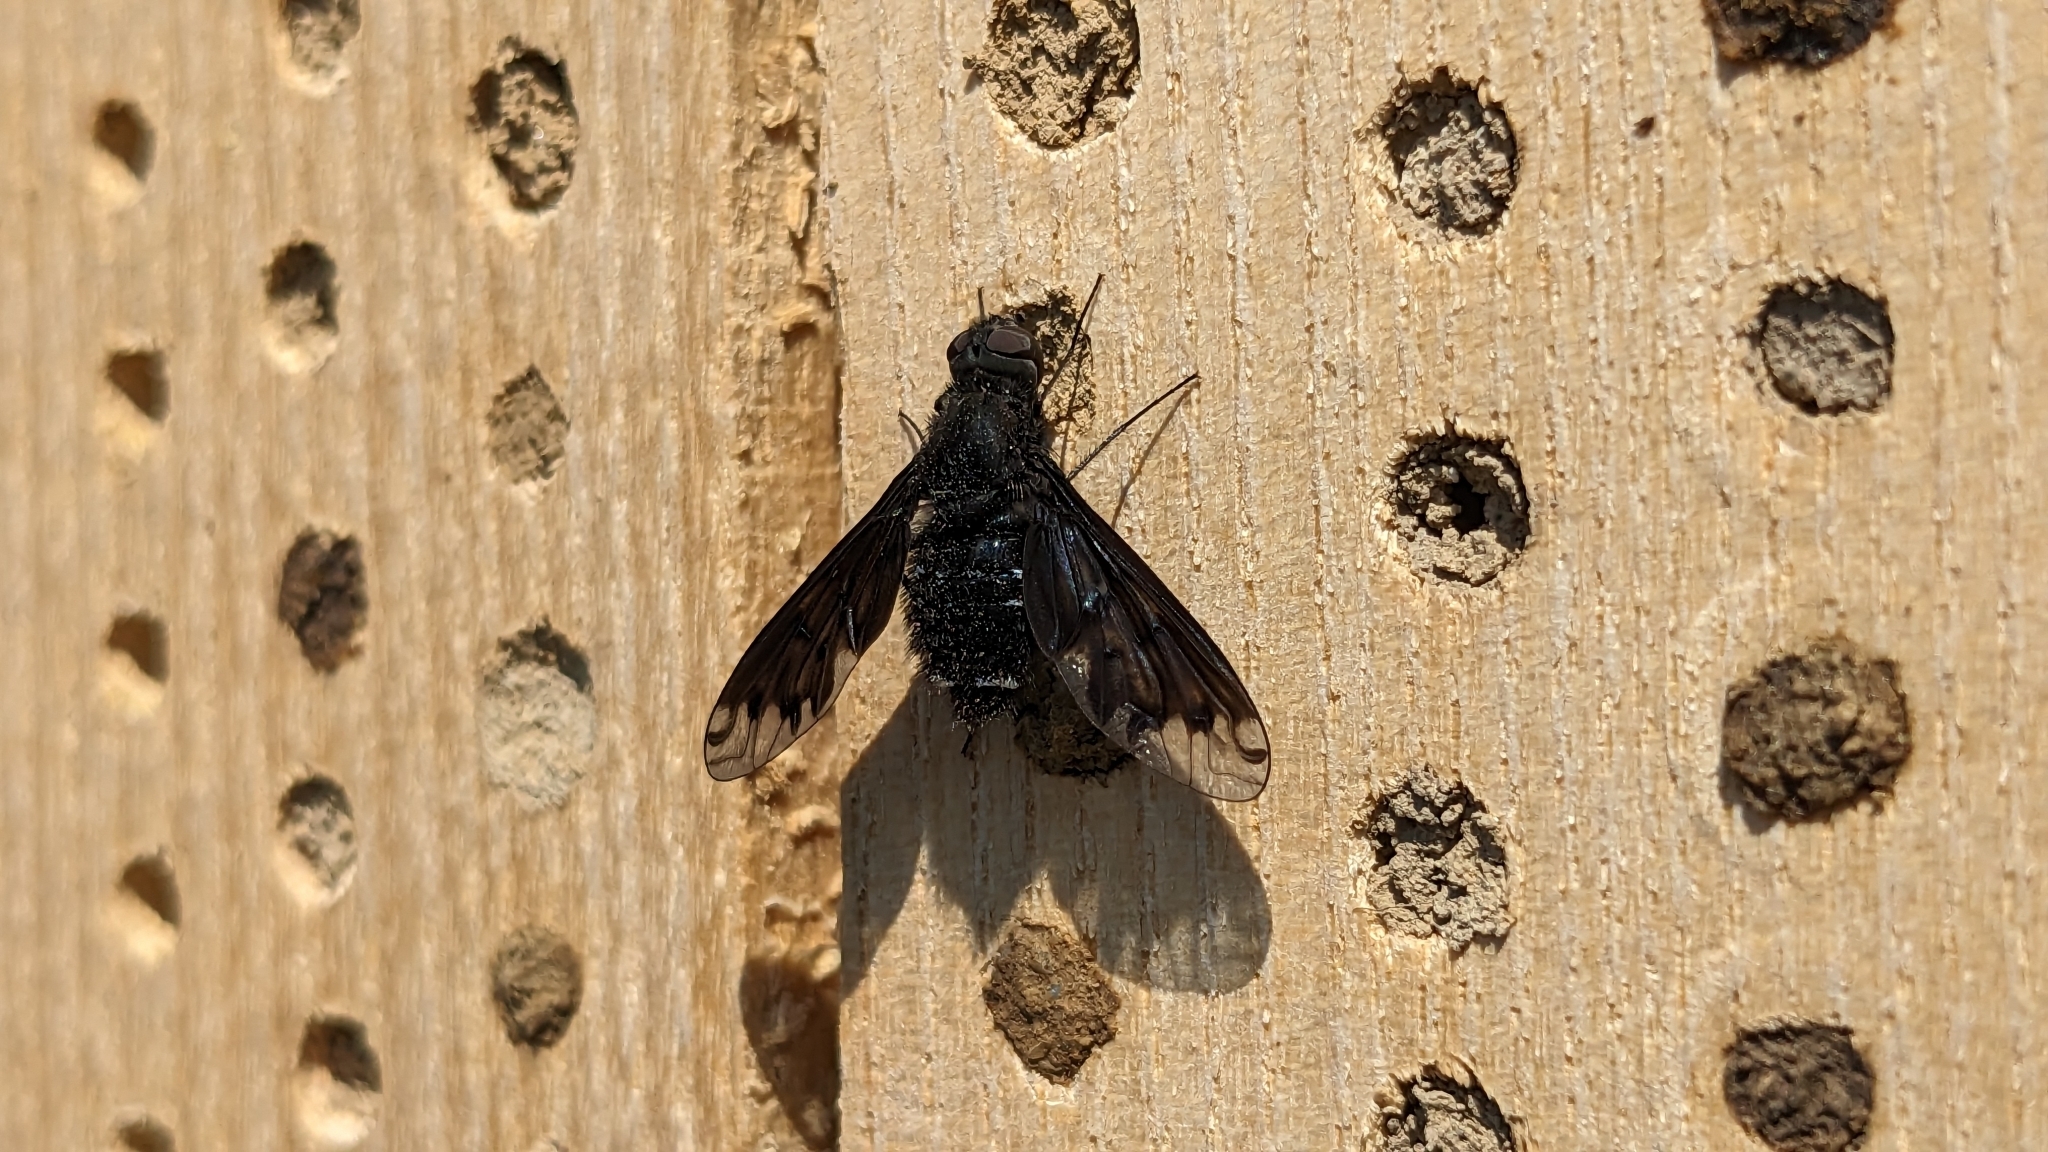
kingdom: Animalia
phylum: Arthropoda
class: Insecta
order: Diptera
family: Bombyliidae
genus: Anthrax
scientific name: Anthrax anthrax
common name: Anthracite bee-fly
